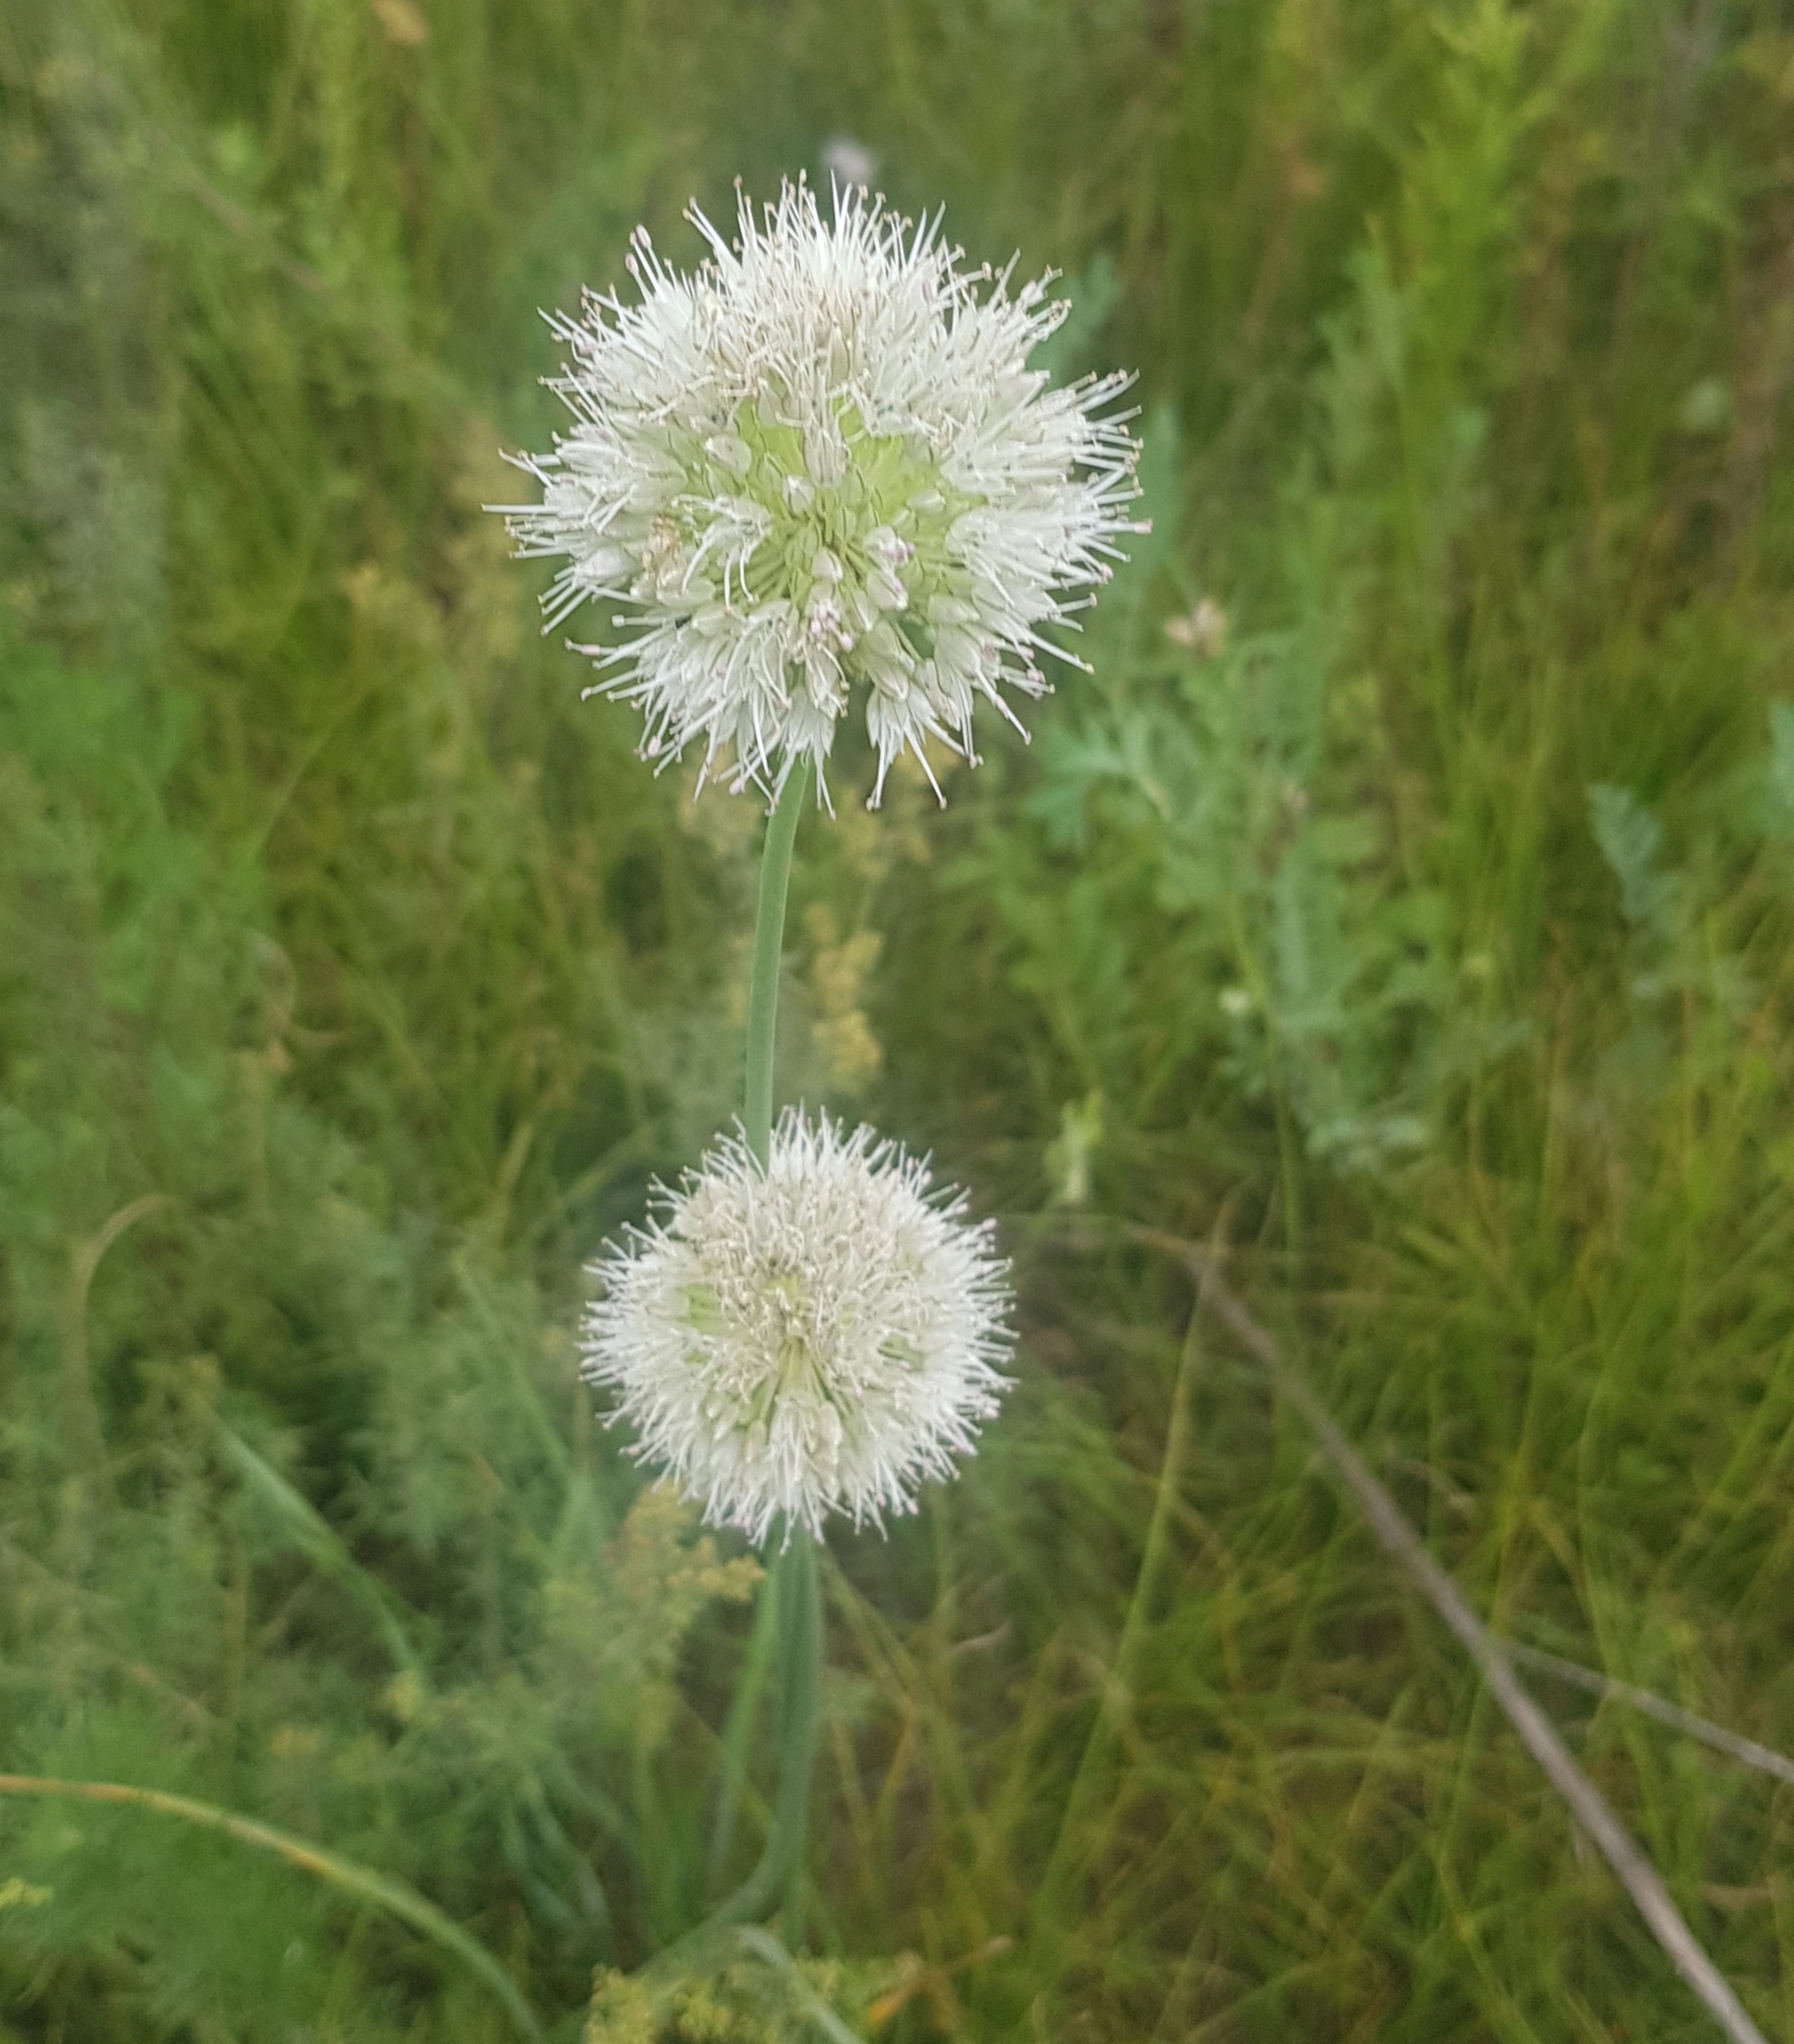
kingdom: Plantae
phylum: Tracheophyta
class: Liliopsida
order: Asparagales
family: Amaryllidaceae
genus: Allium
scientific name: Allium leucocephalum
